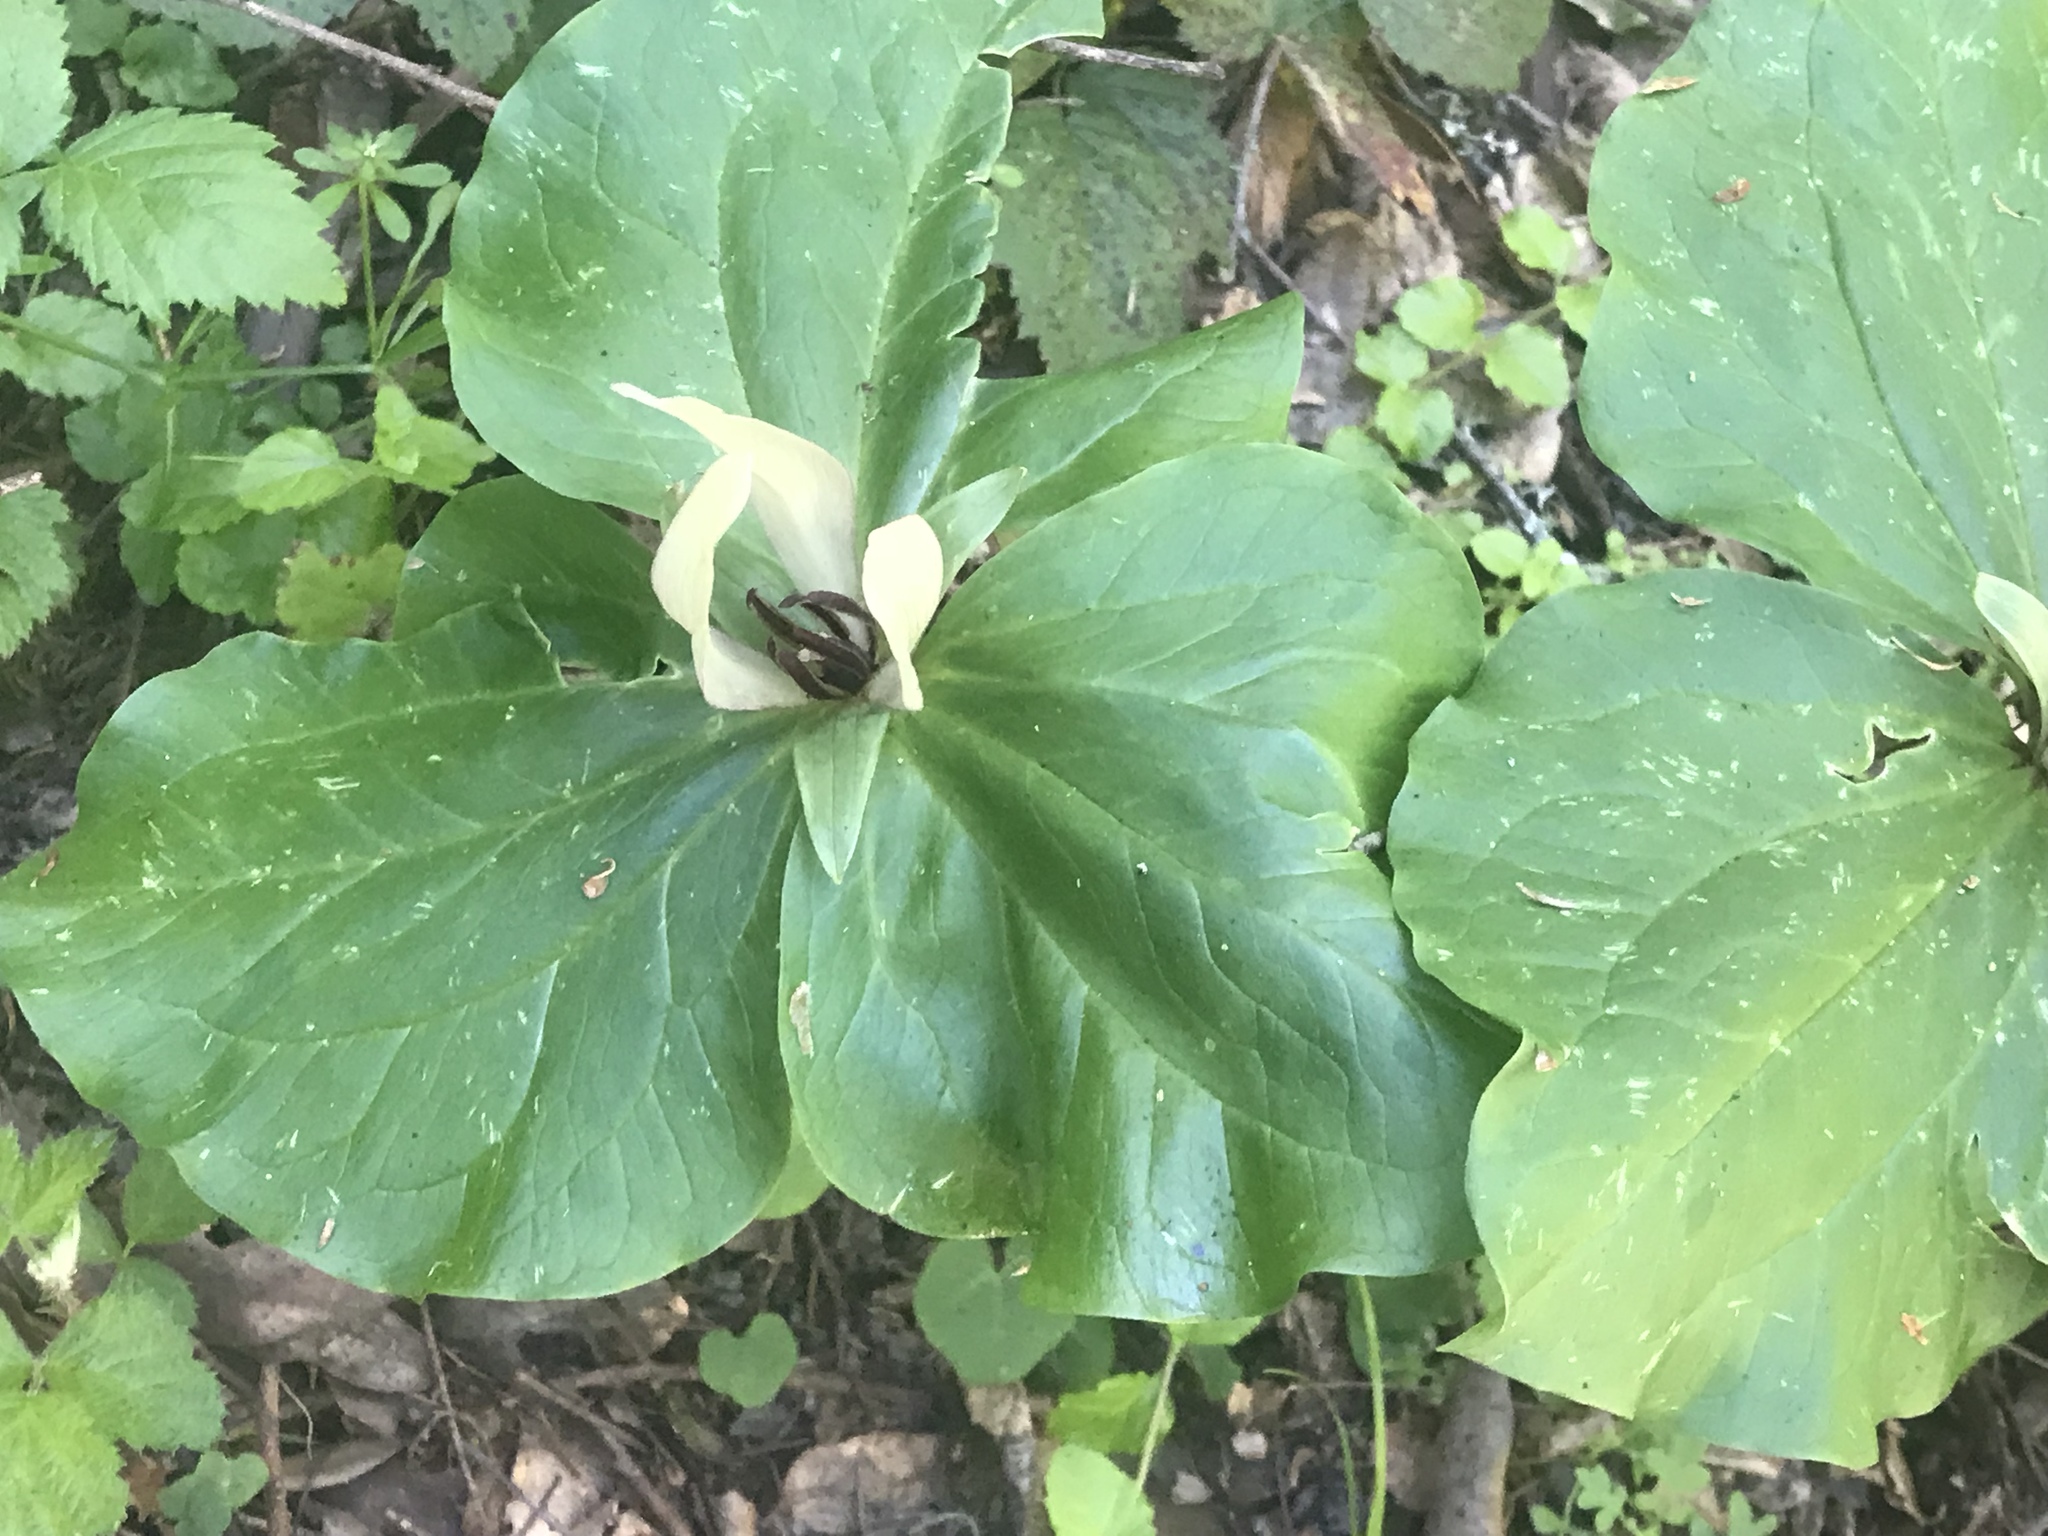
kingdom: Plantae
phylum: Tracheophyta
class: Liliopsida
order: Liliales
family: Melanthiaceae
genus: Trillium
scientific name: Trillium chloropetalum
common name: Giant trillium
